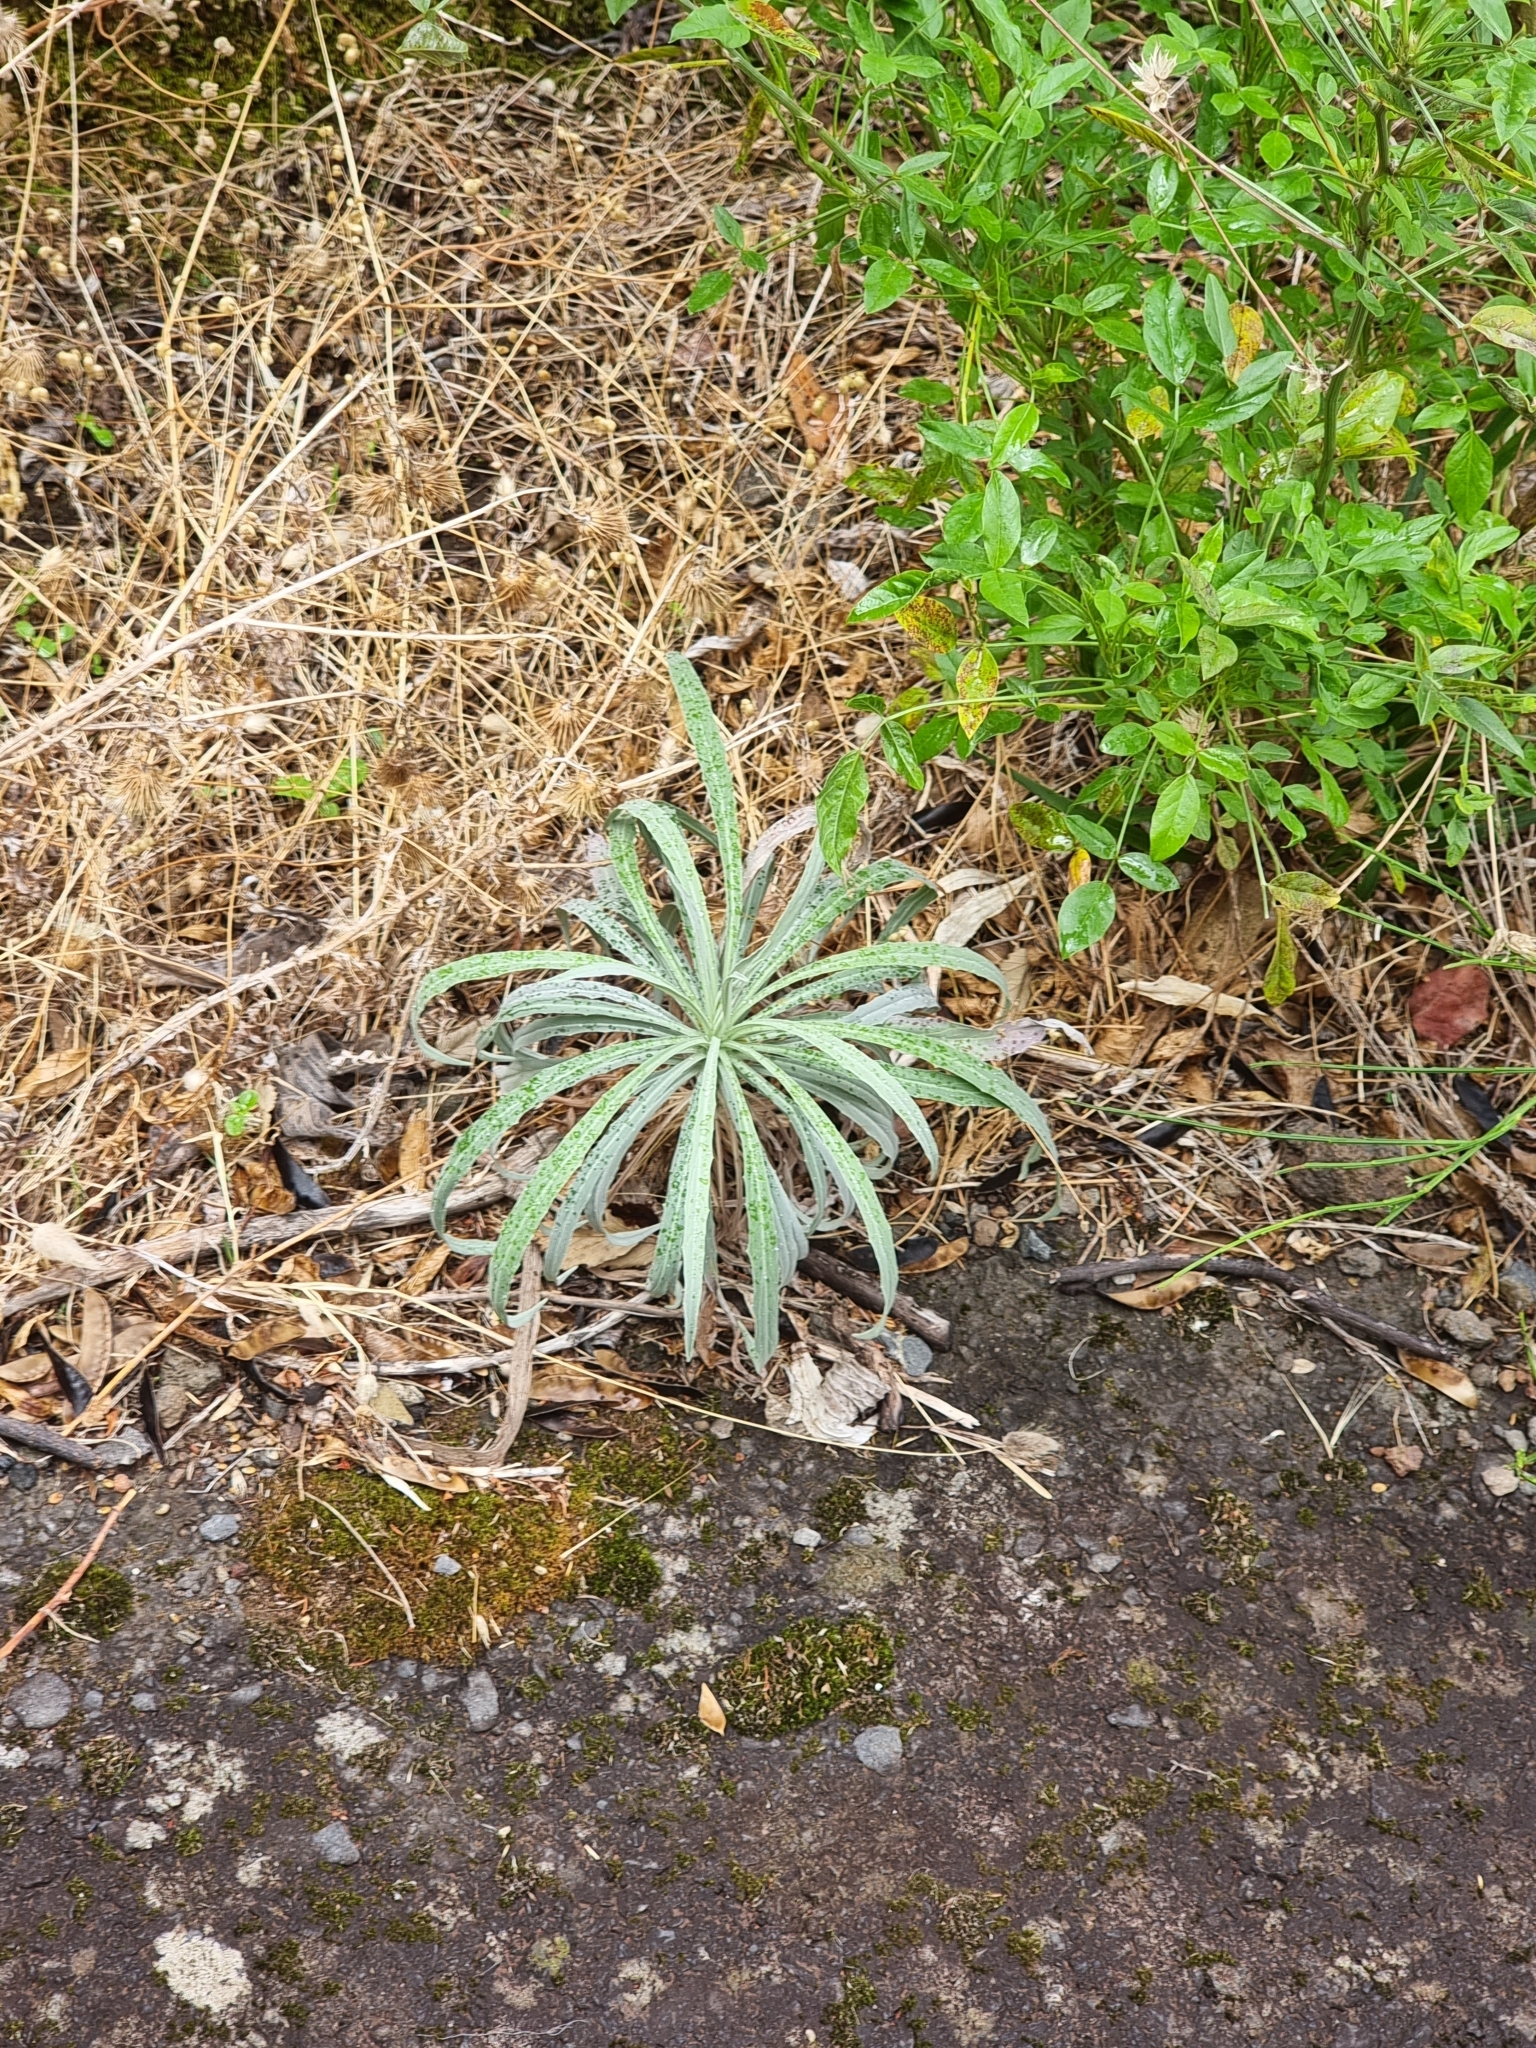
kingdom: Plantae
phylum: Tracheophyta
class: Magnoliopsida
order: Asterales
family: Asteraceae
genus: Andryala
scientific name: Andryala glandulosa
